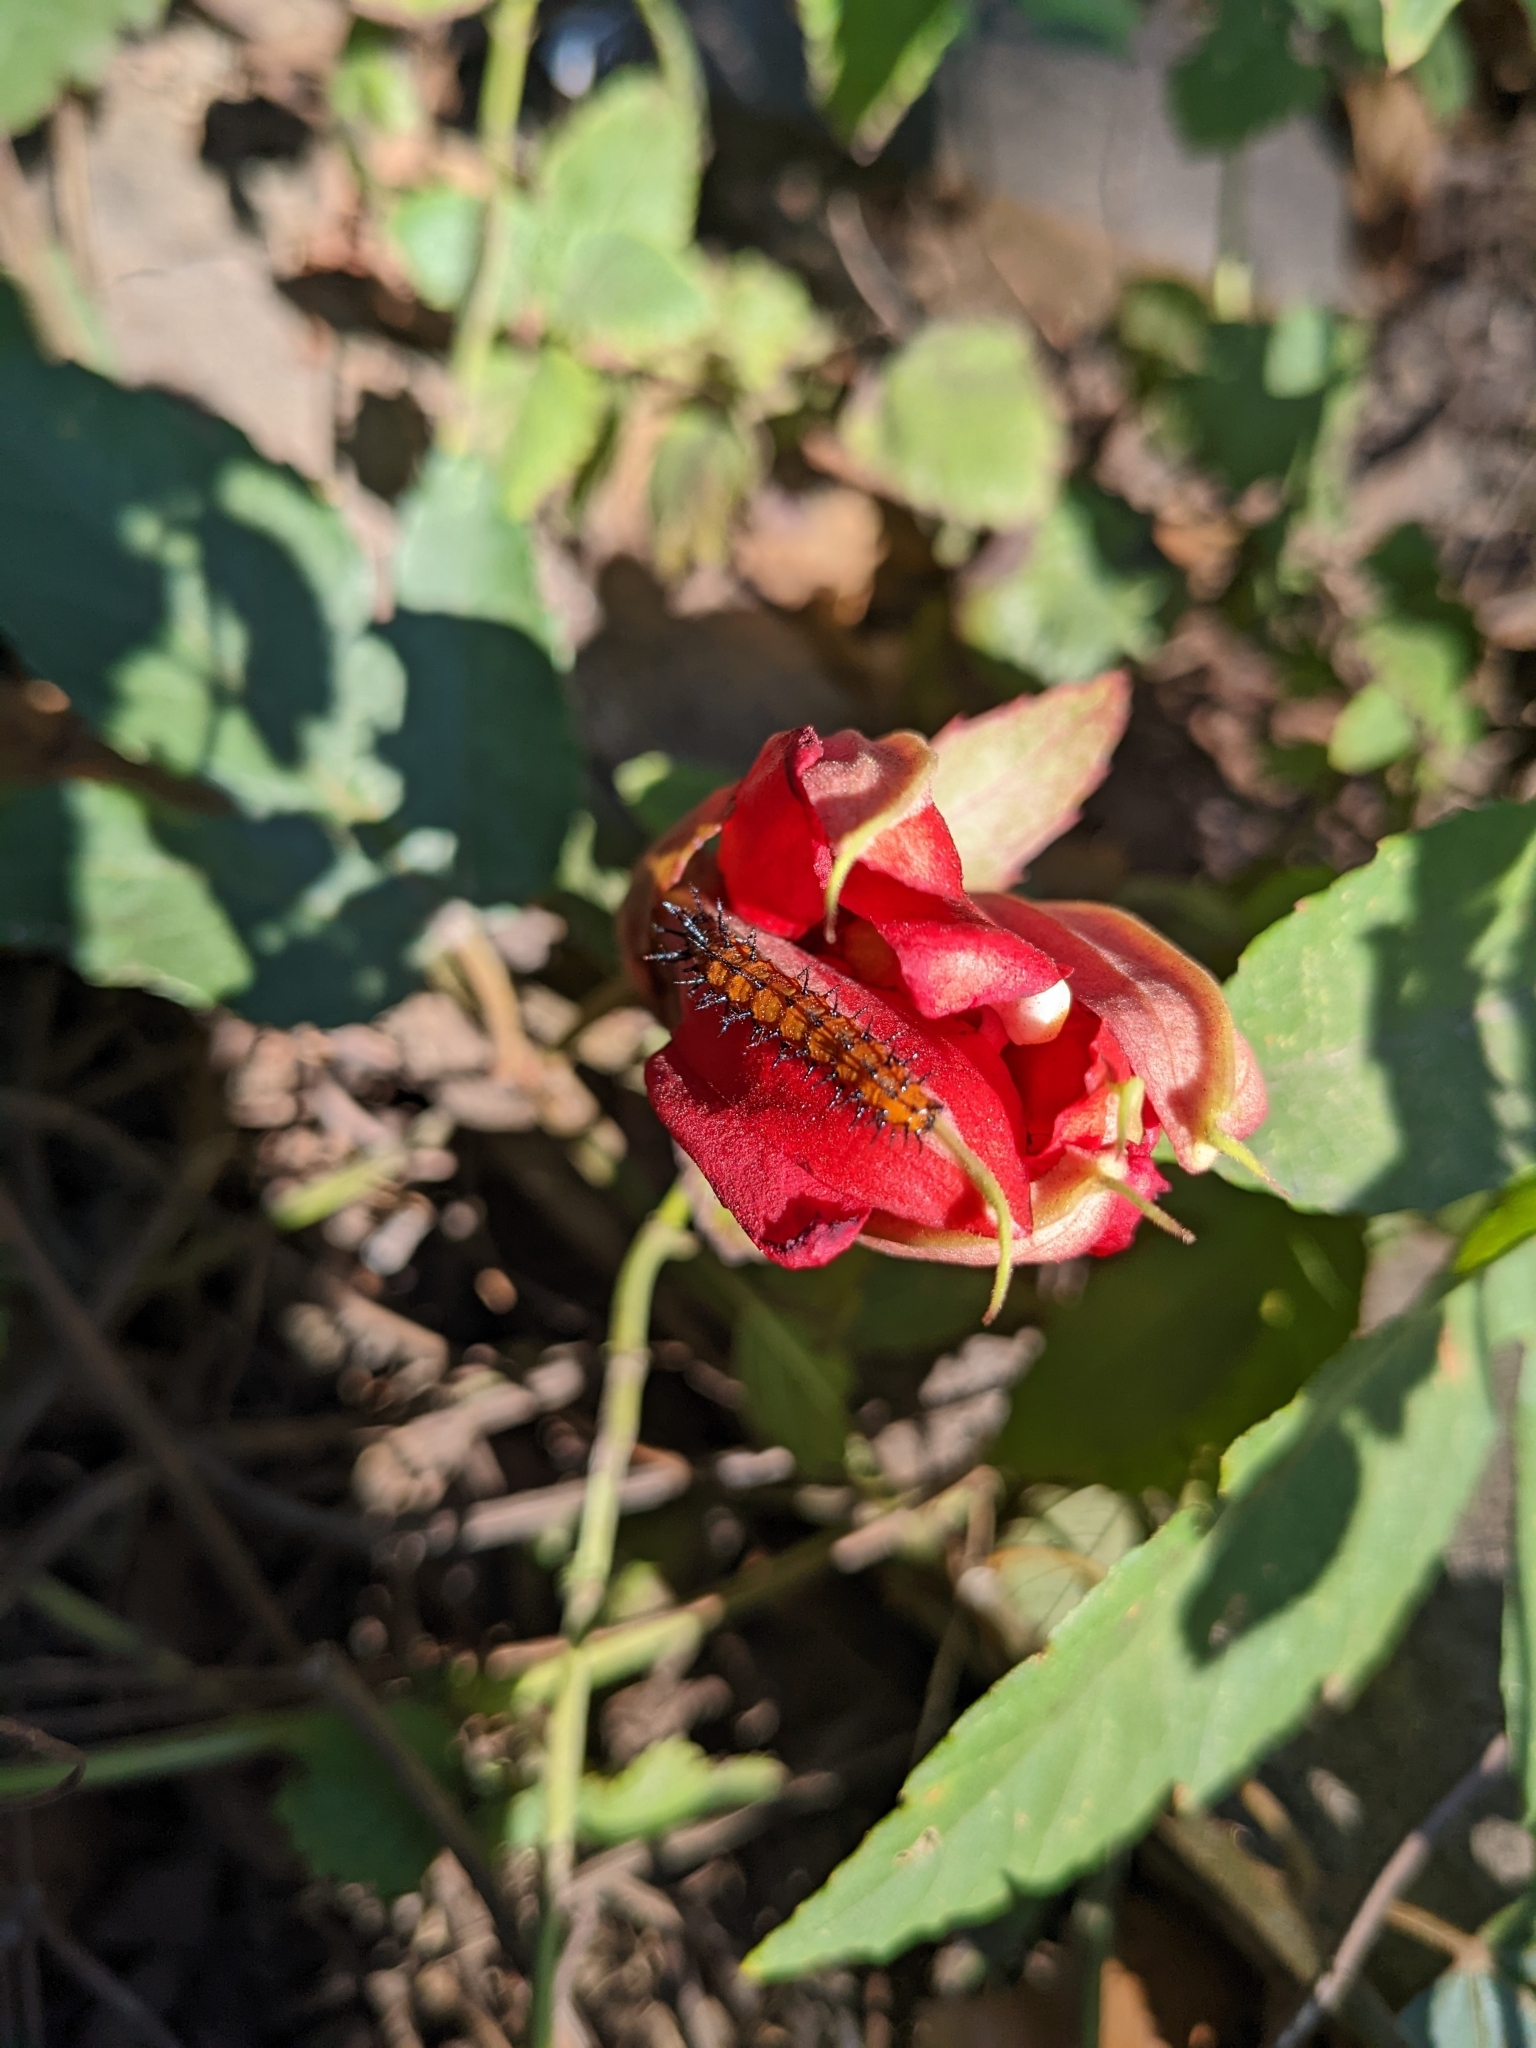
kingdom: Animalia
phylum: Arthropoda
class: Insecta
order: Lepidoptera
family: Nymphalidae
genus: Dione
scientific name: Dione vanillae
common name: Gulf fritillary
